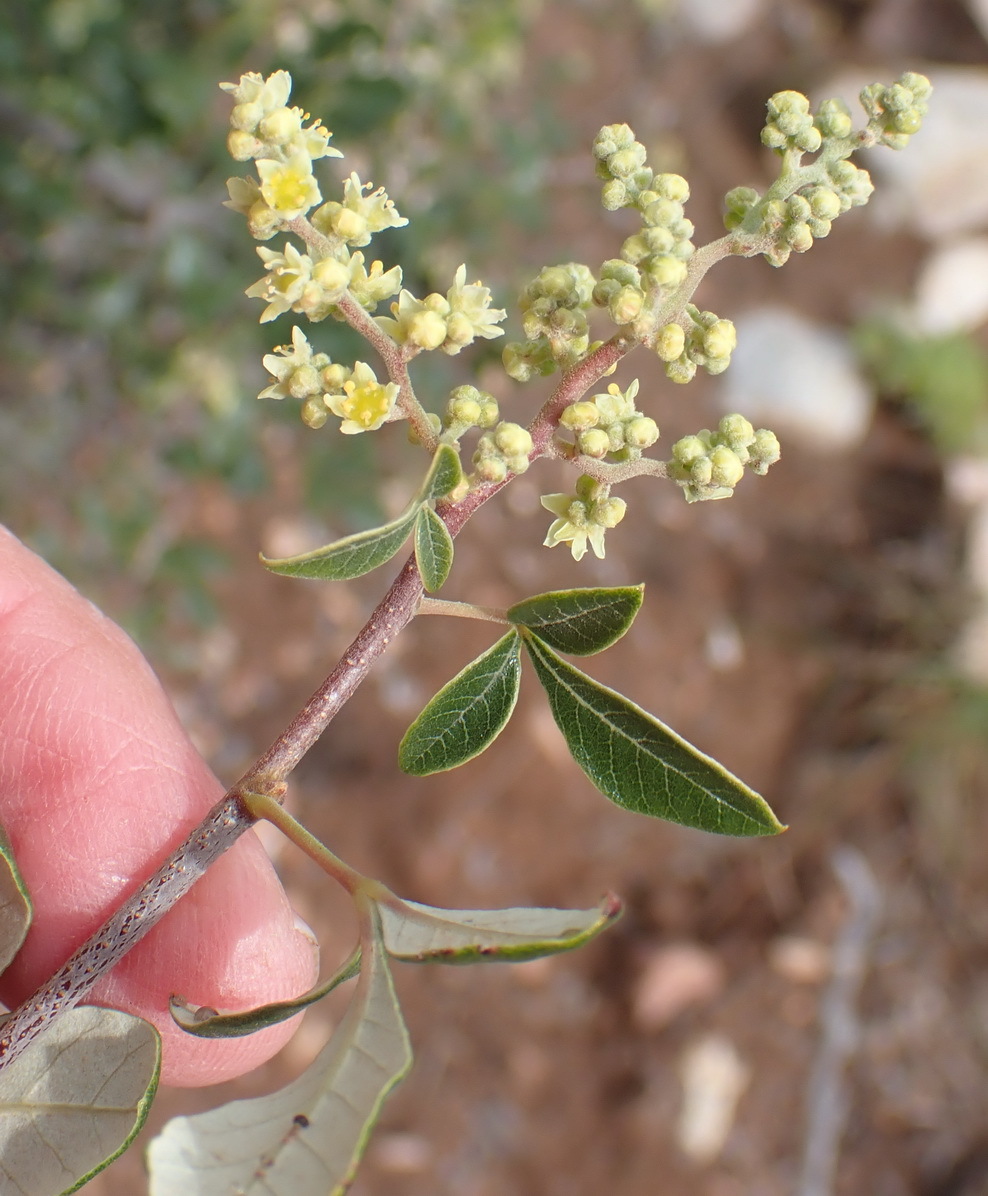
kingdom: Plantae
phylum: Tracheophyta
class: Magnoliopsida
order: Sapindales
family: Anacardiaceae
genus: Searsia
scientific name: Searsia tomentosa
